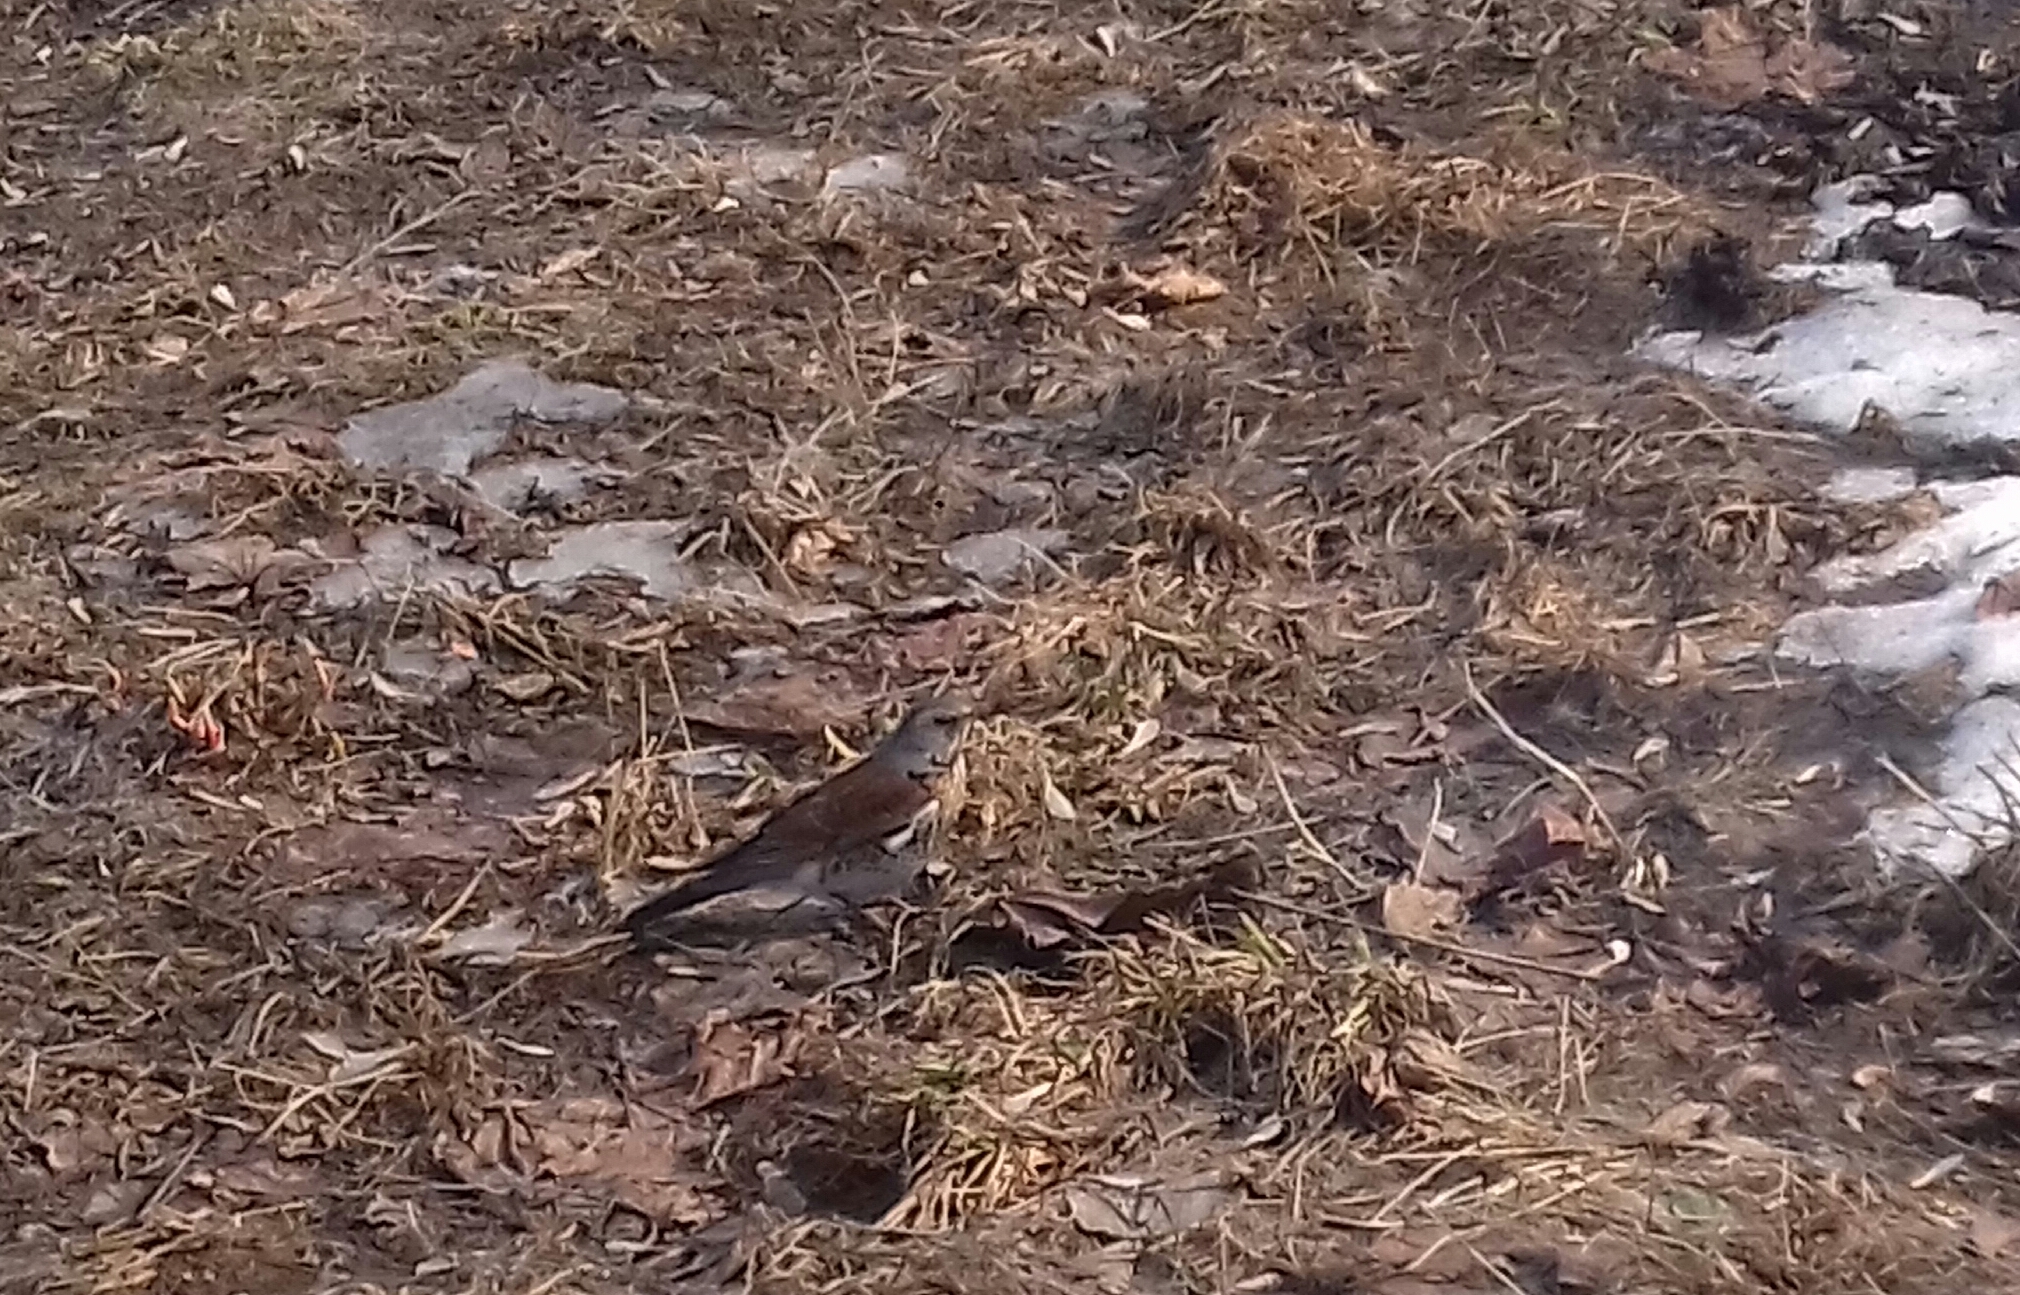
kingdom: Animalia
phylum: Chordata
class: Aves
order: Passeriformes
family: Turdidae
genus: Turdus
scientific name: Turdus pilaris
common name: Fieldfare
